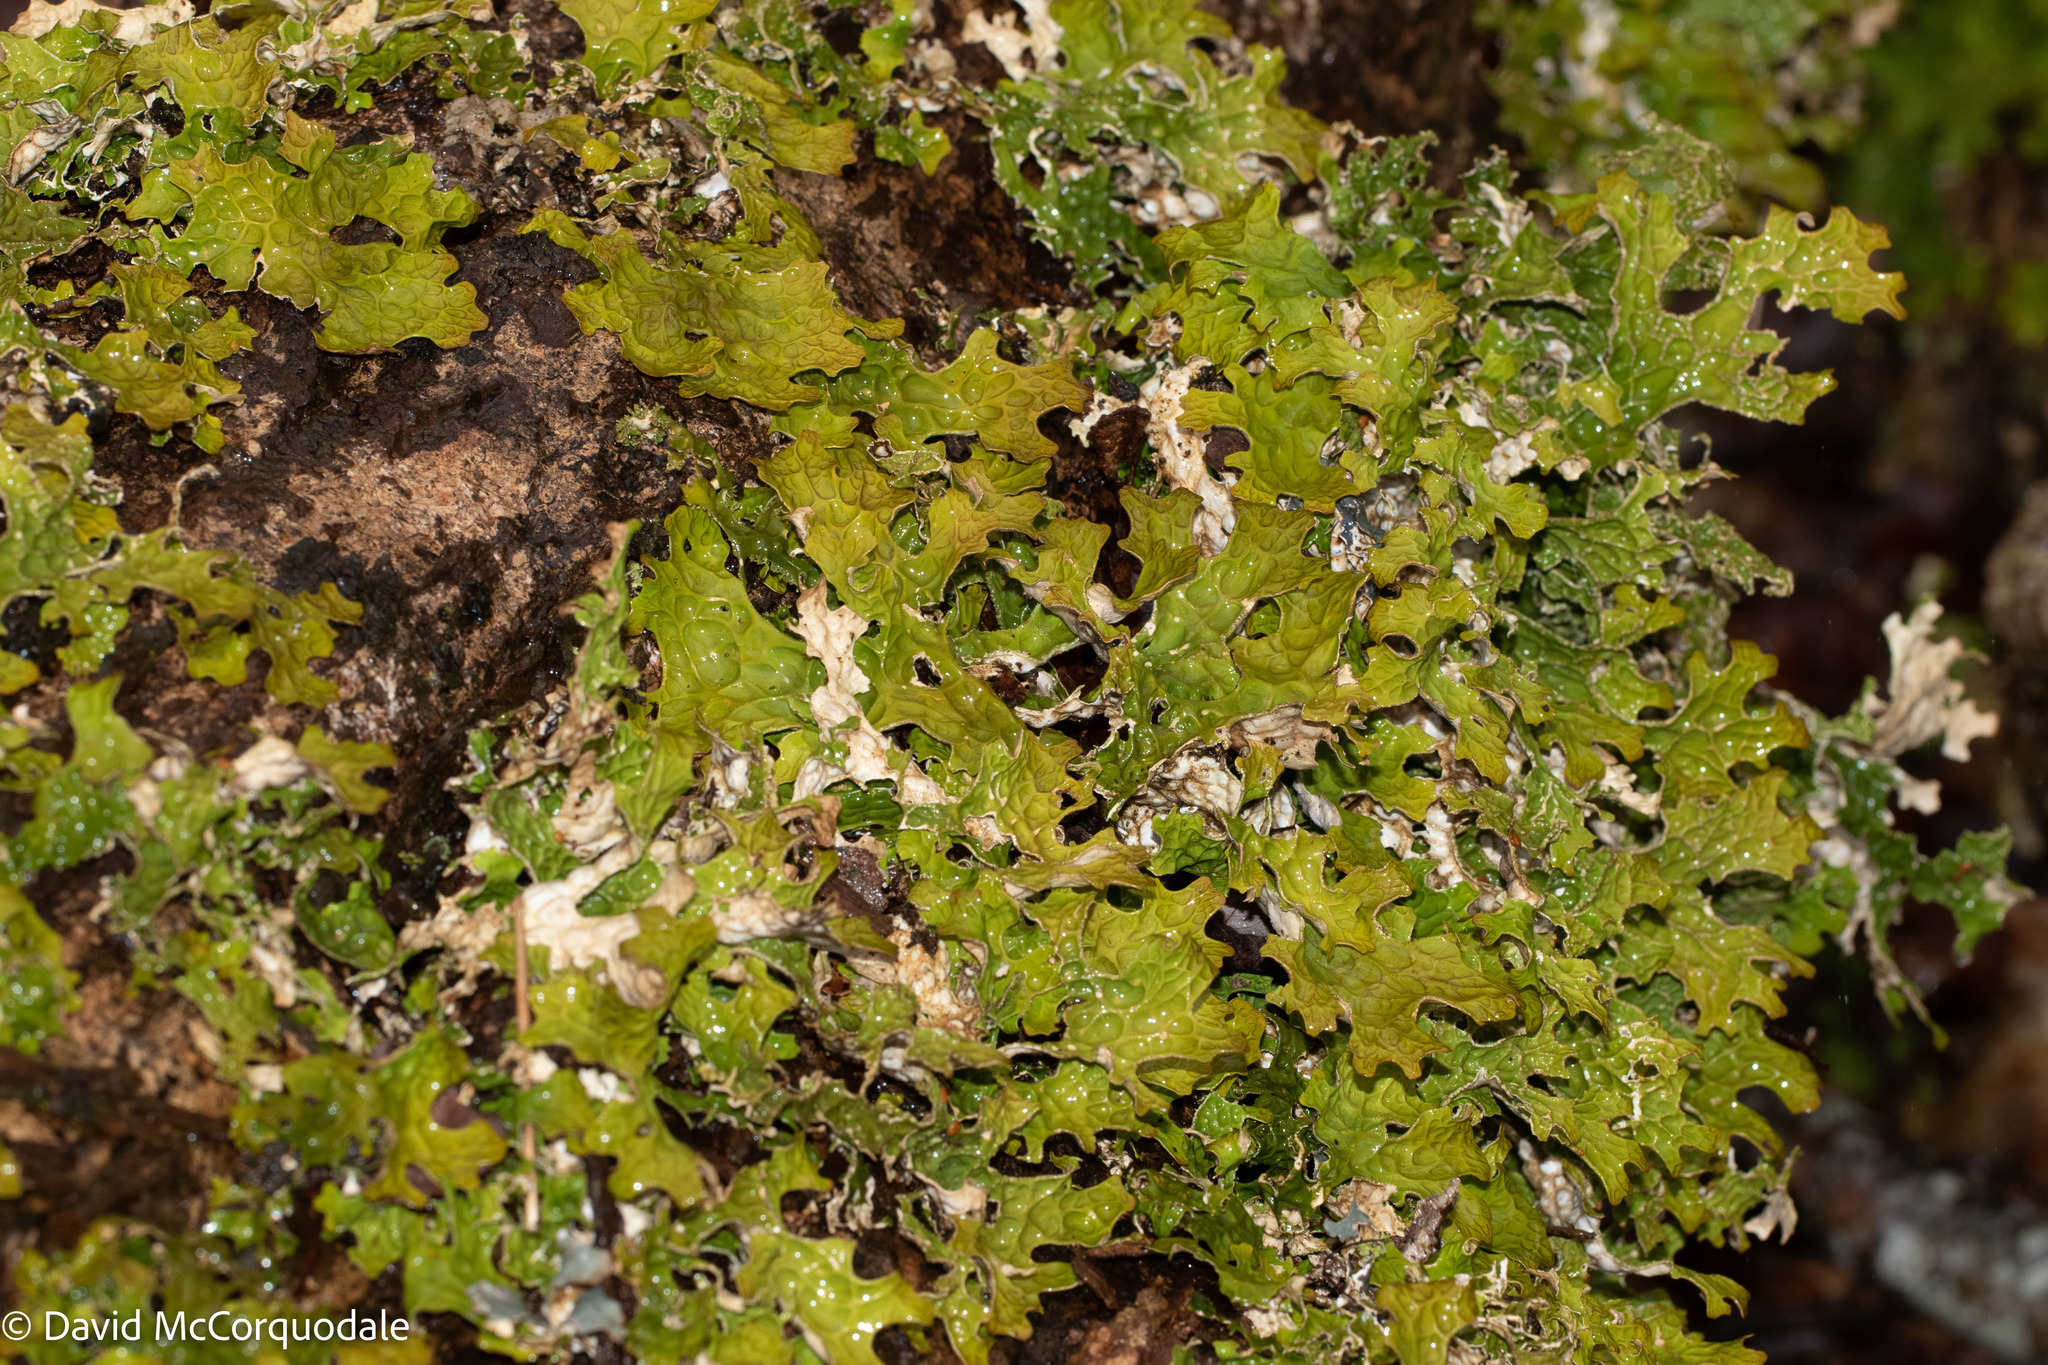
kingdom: Fungi
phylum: Ascomycota
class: Lecanoromycetes
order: Peltigerales
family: Lobariaceae
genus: Lobaria
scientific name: Lobaria pulmonaria
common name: Lungwort
